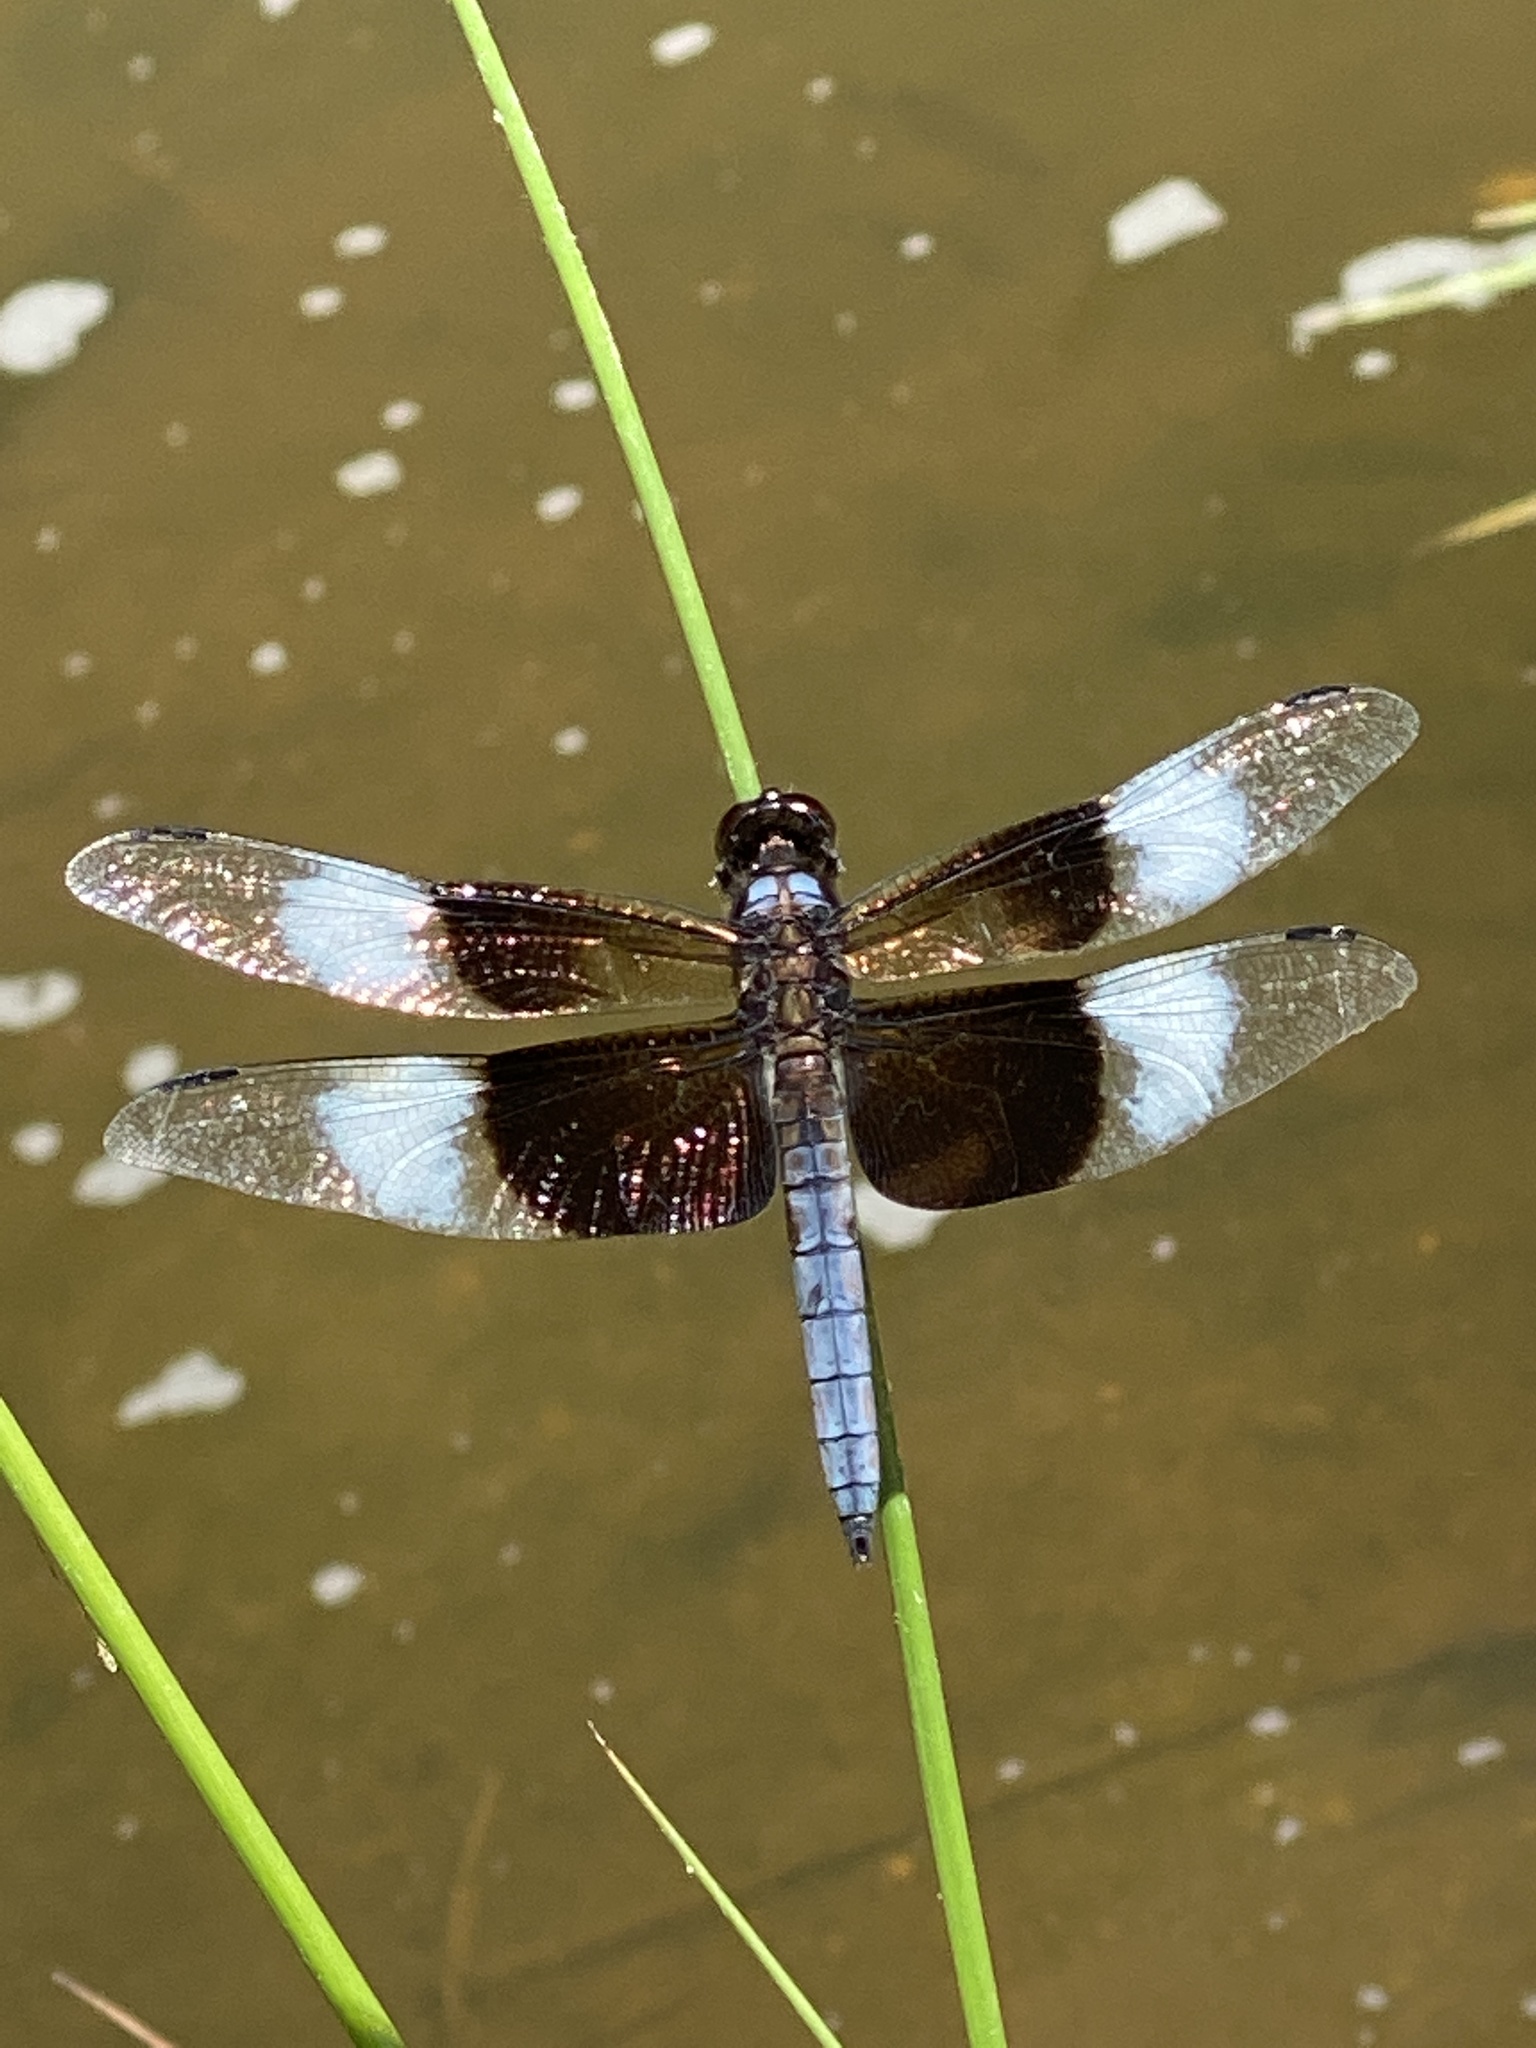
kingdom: Animalia
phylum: Arthropoda
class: Insecta
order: Odonata
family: Libellulidae
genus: Libellula
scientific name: Libellula luctuosa
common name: Widow skimmer
